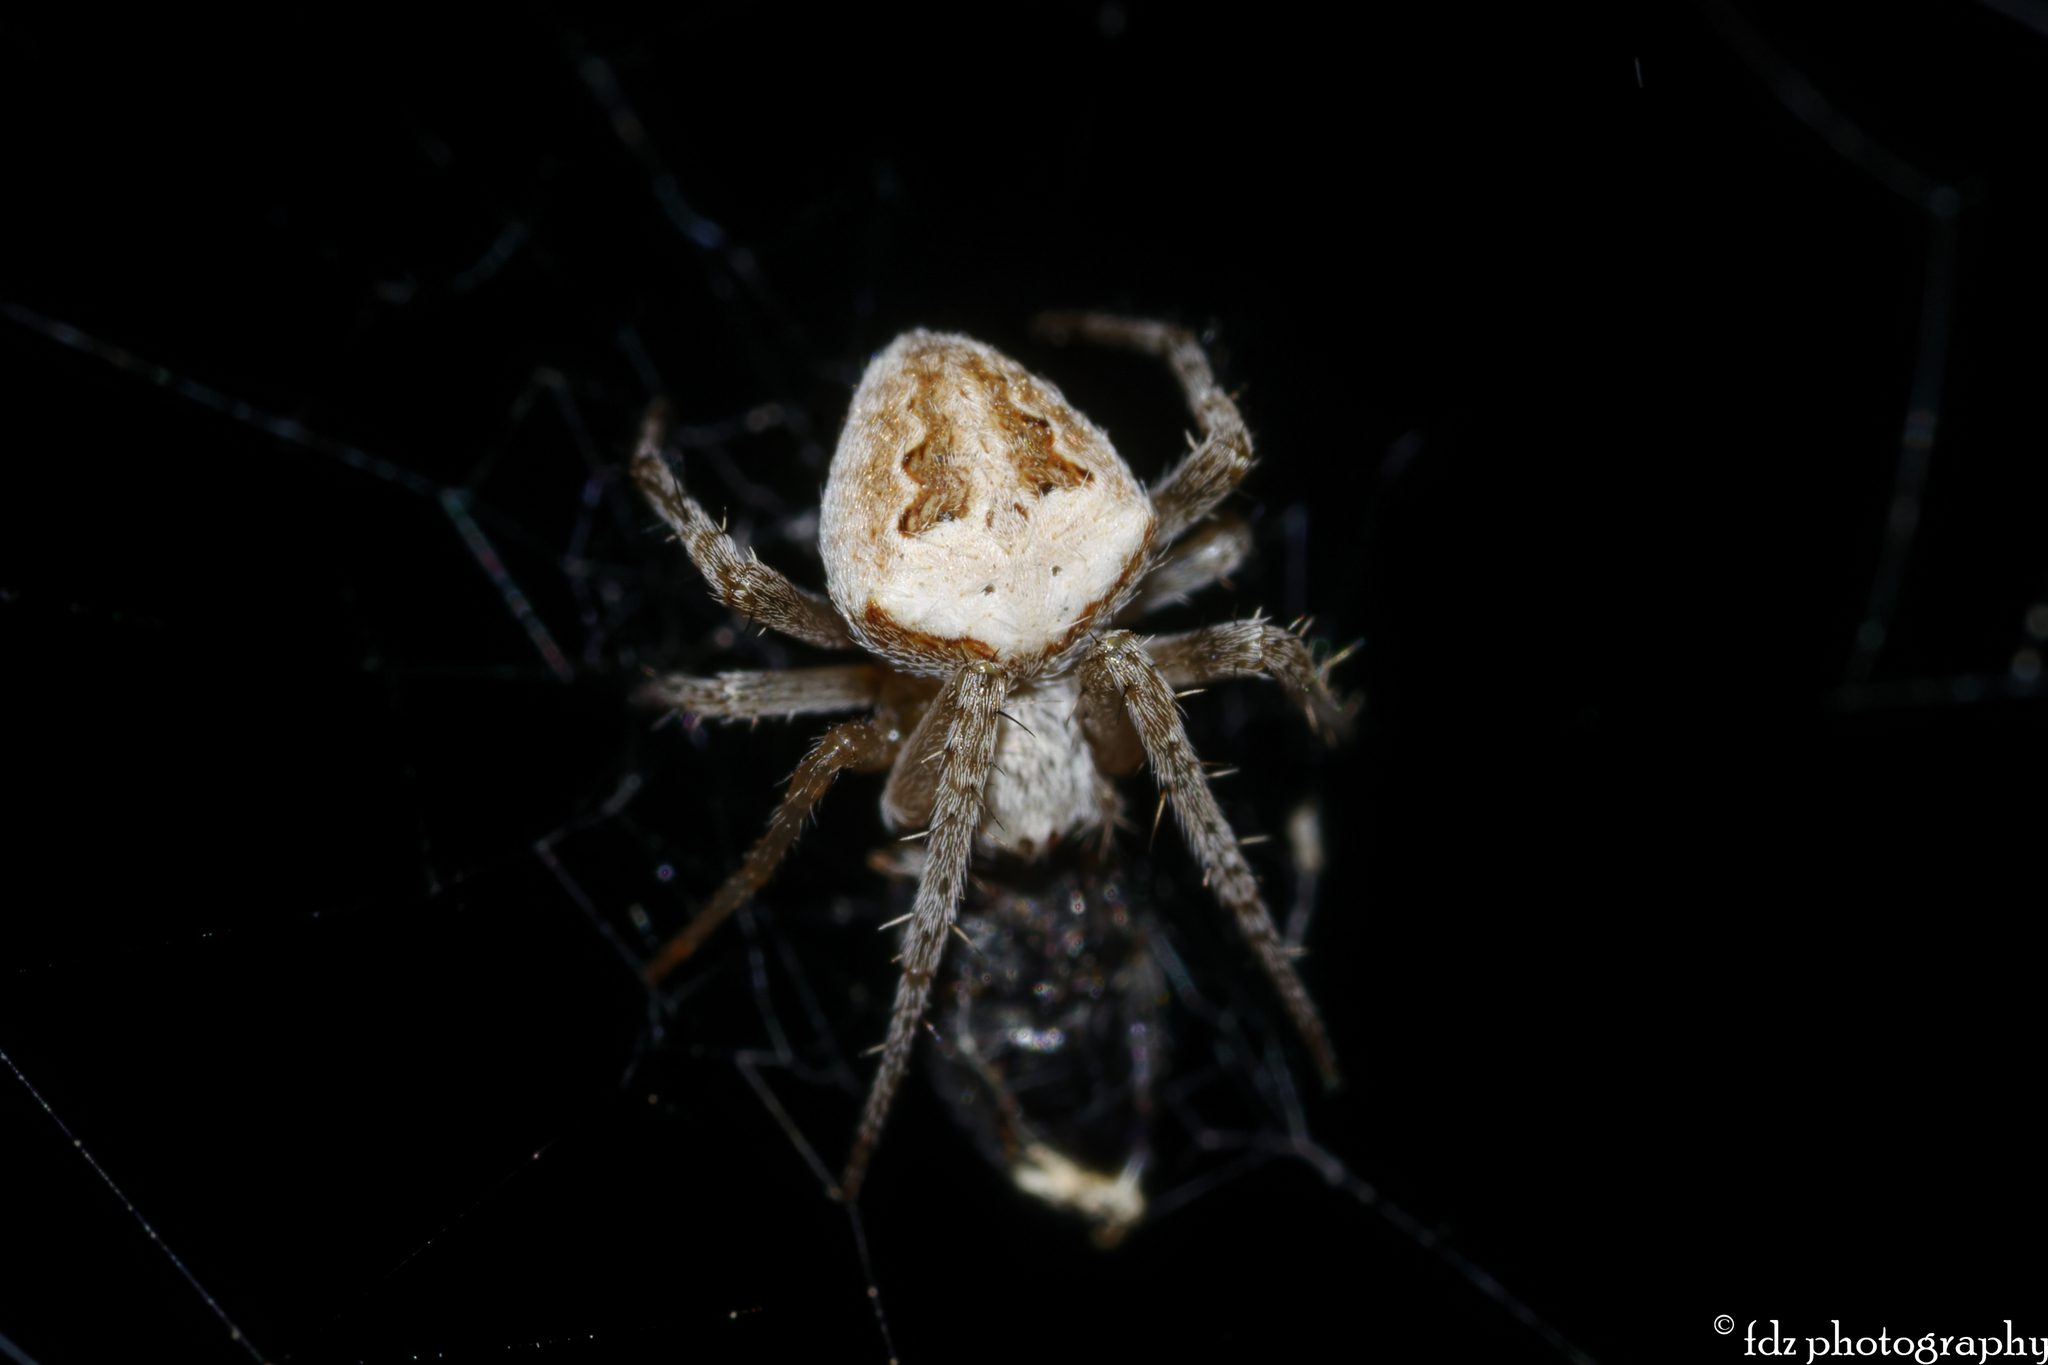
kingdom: Animalia
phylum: Arthropoda
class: Arachnida
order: Araneae
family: Araneidae
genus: Neoscona
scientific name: Neoscona subfusca
